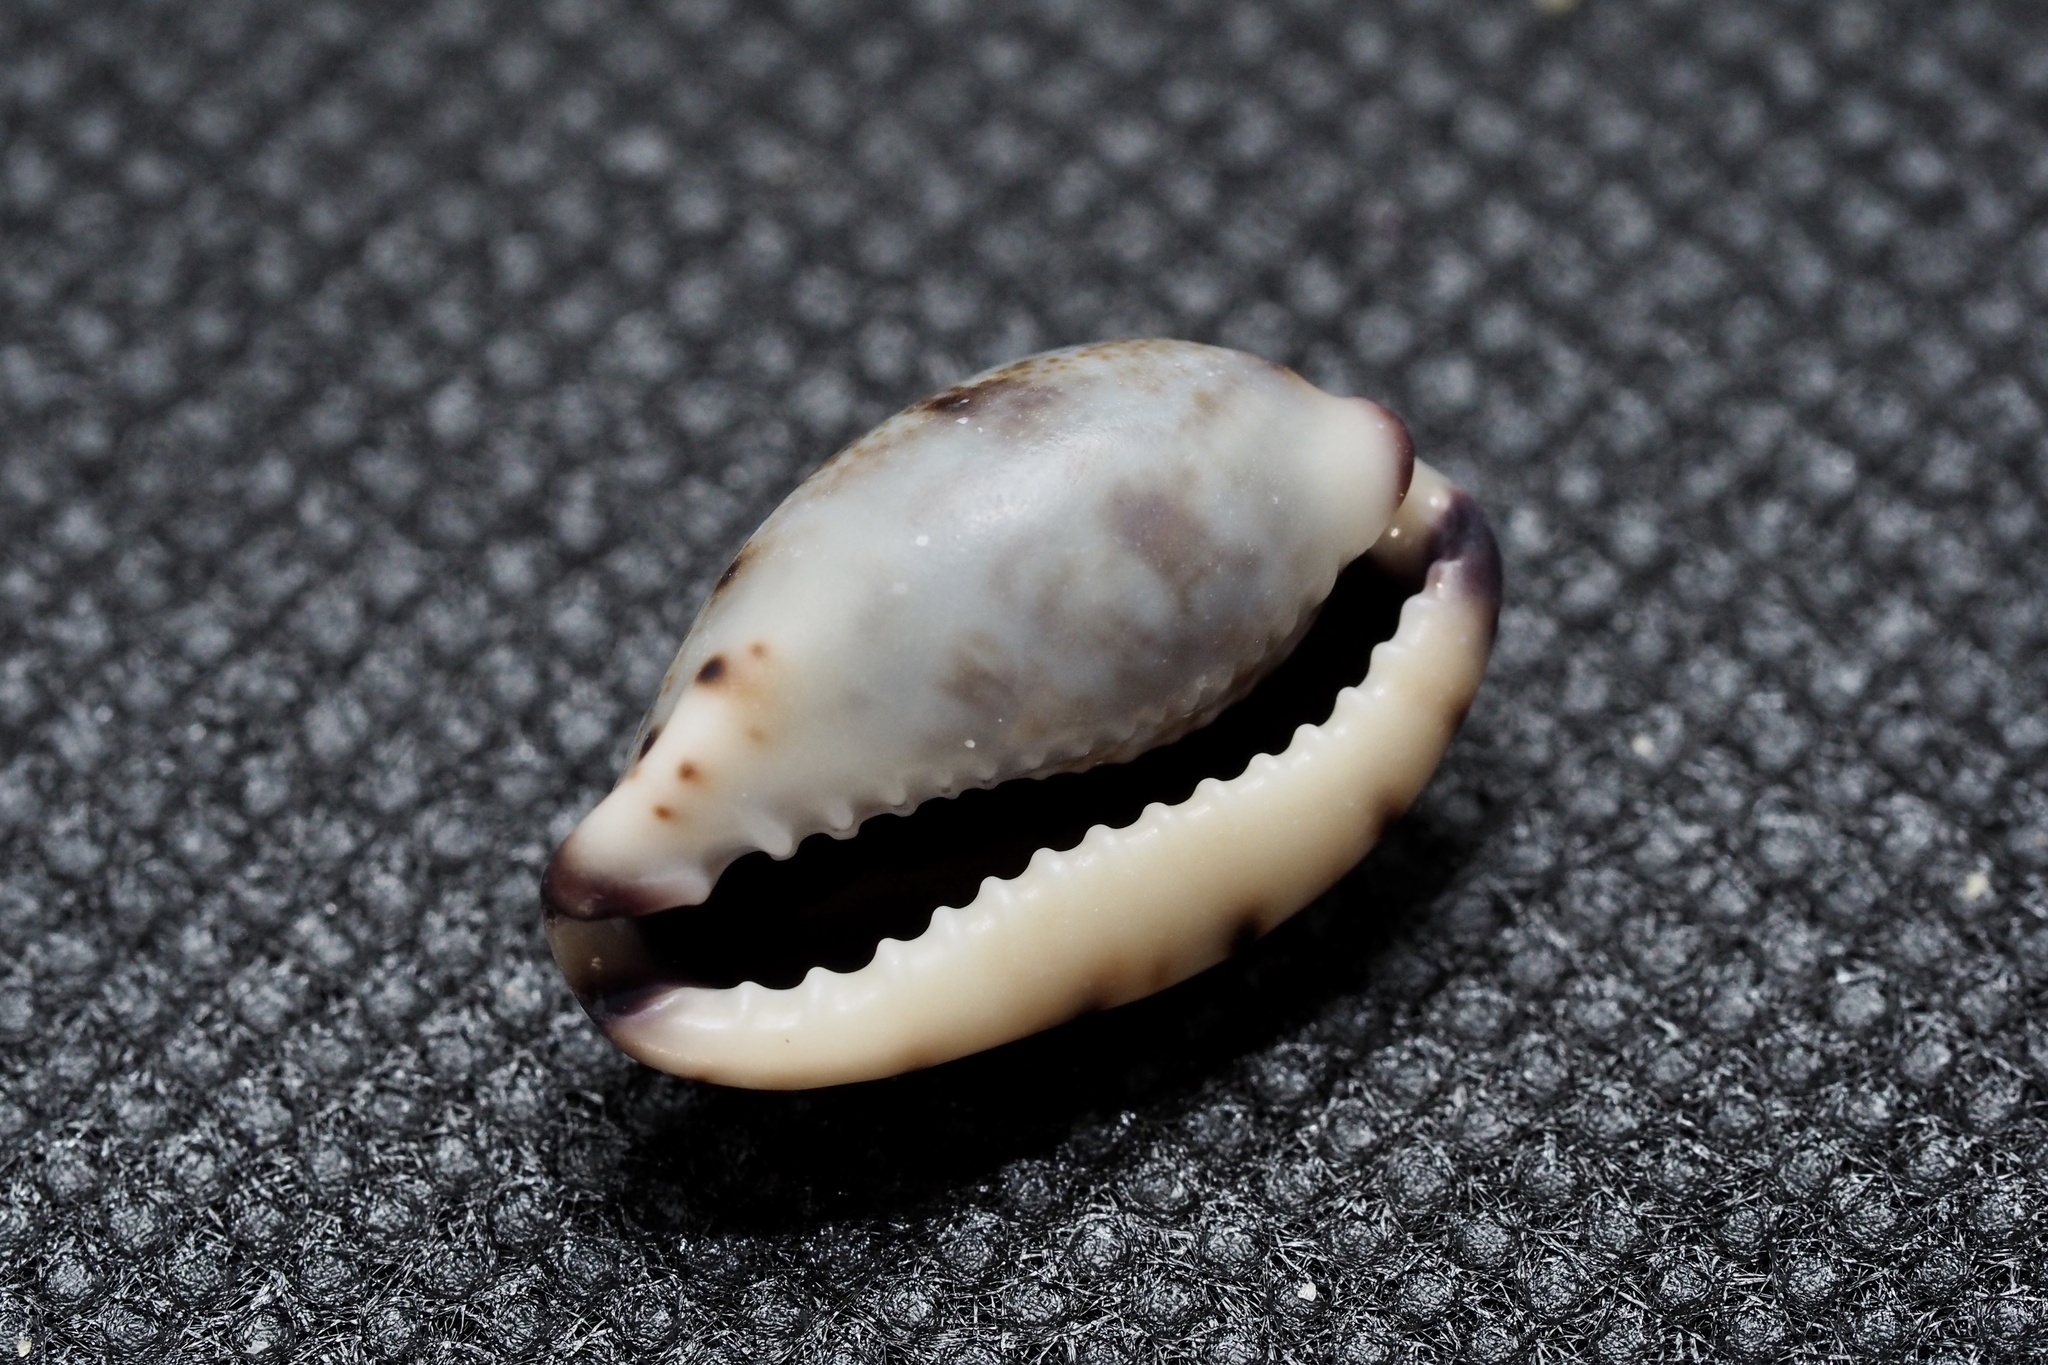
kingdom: Animalia
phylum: Mollusca
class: Gastropoda
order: Littorinimorpha
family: Cypraeidae
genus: Purpuradusta
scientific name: Purpuradusta gracilis
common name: Graceful cowrie
